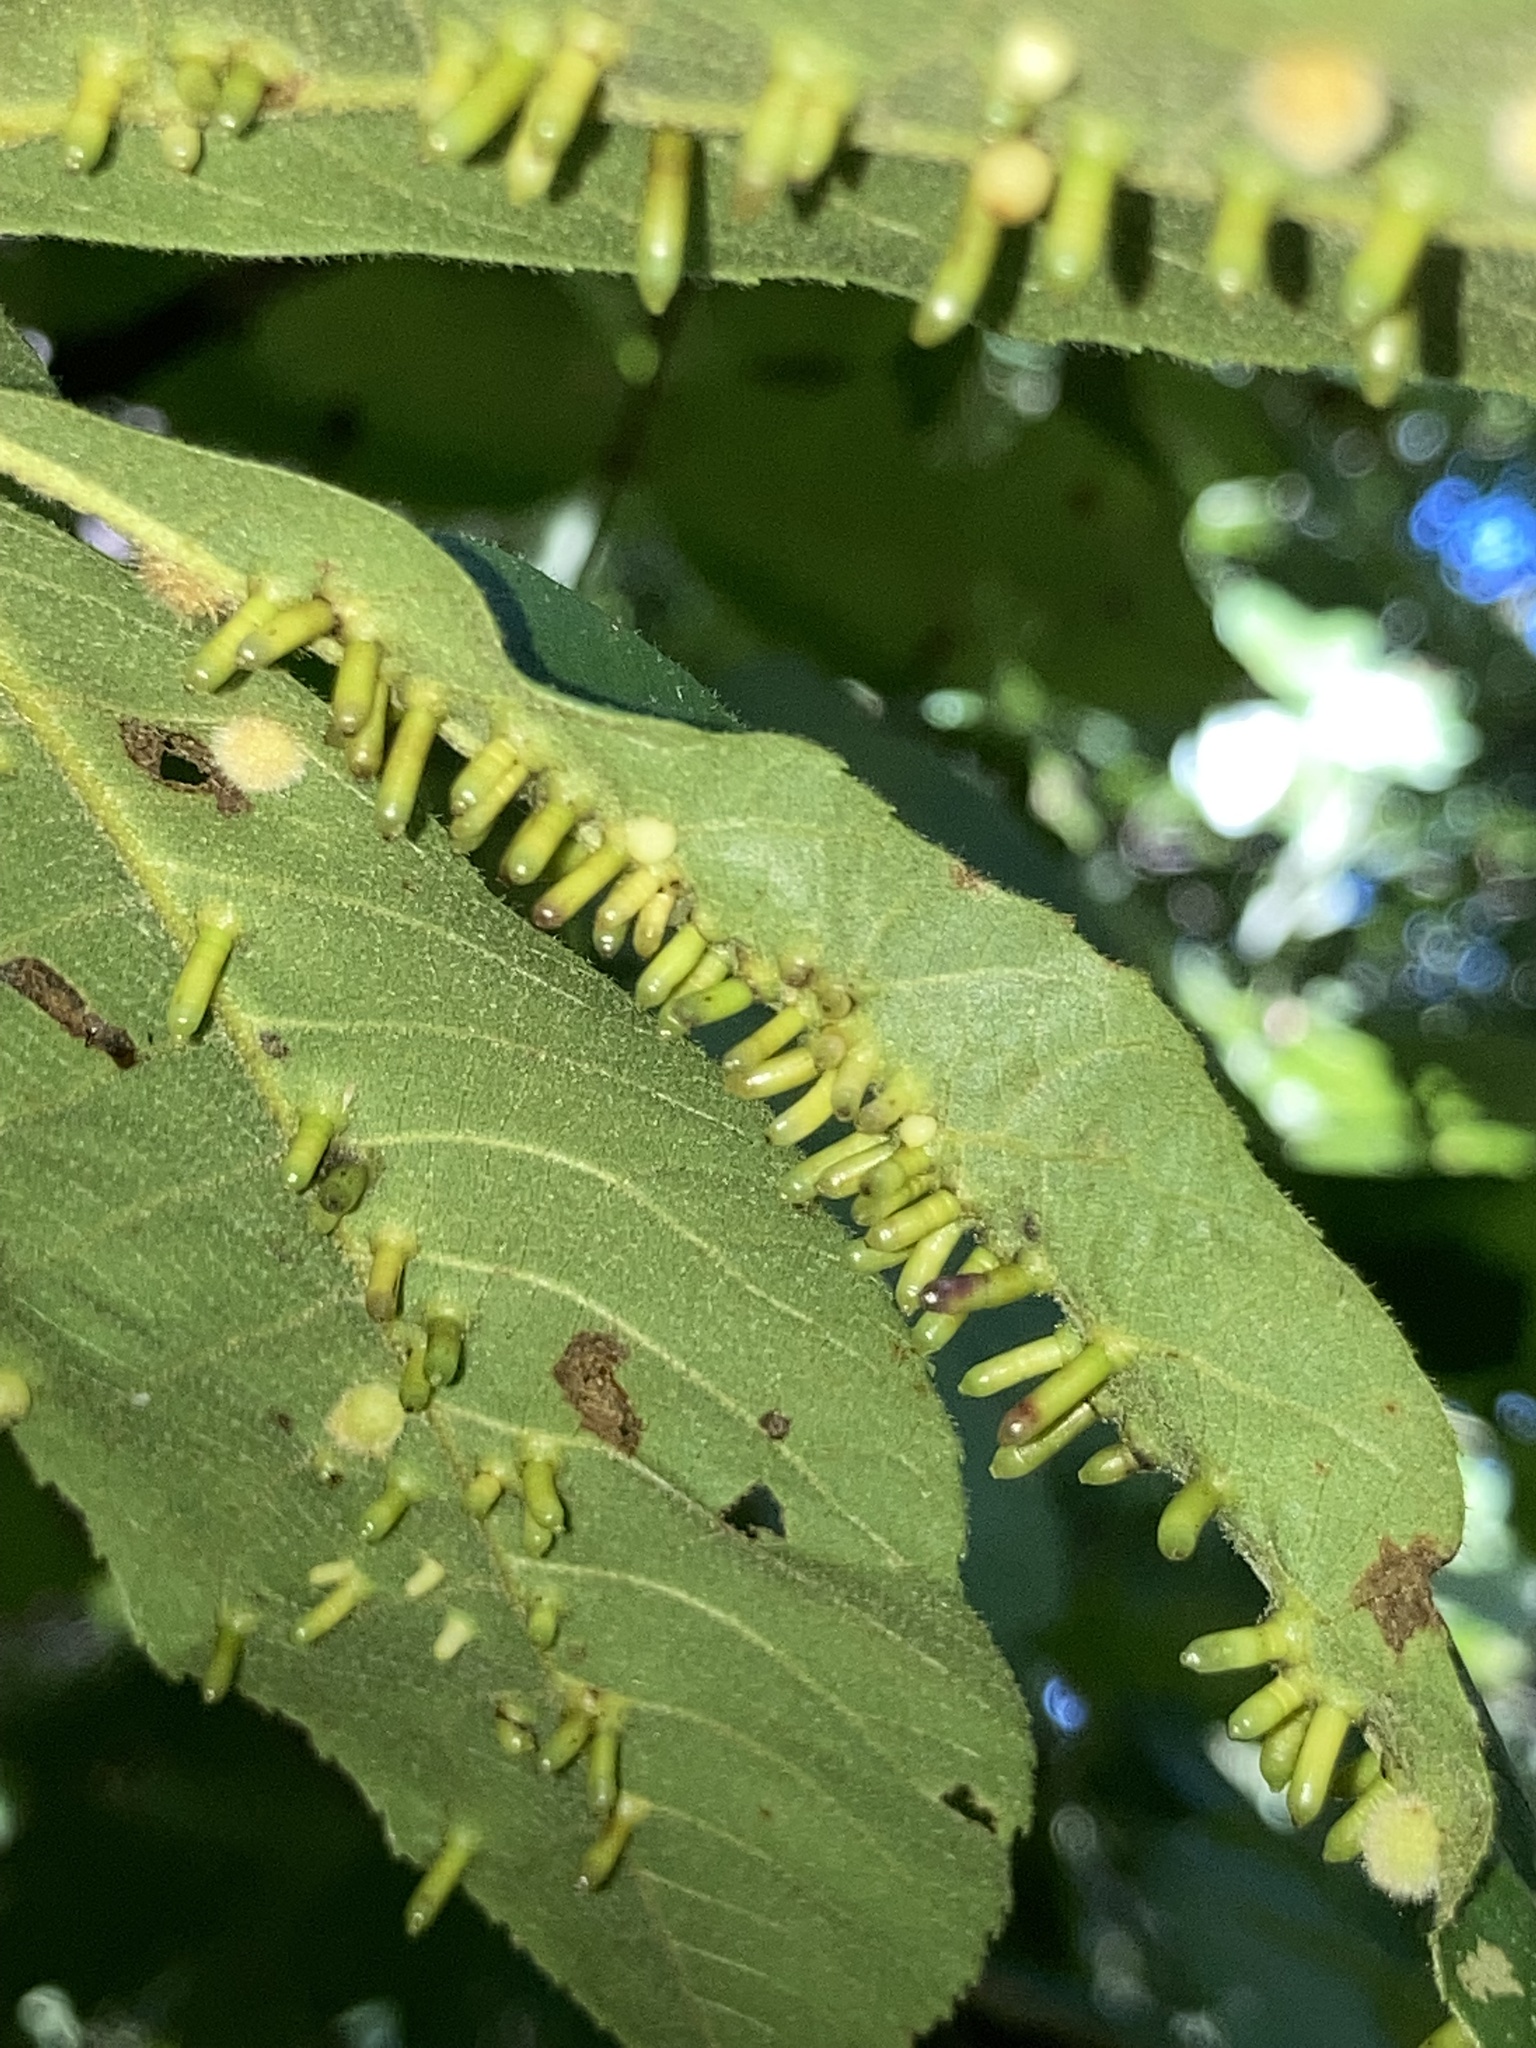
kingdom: Animalia
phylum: Arthropoda
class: Insecta
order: Diptera
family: Cecidomyiidae
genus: Caryomyia
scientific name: Caryomyia tubicola
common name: Hickory bullet gall midge
